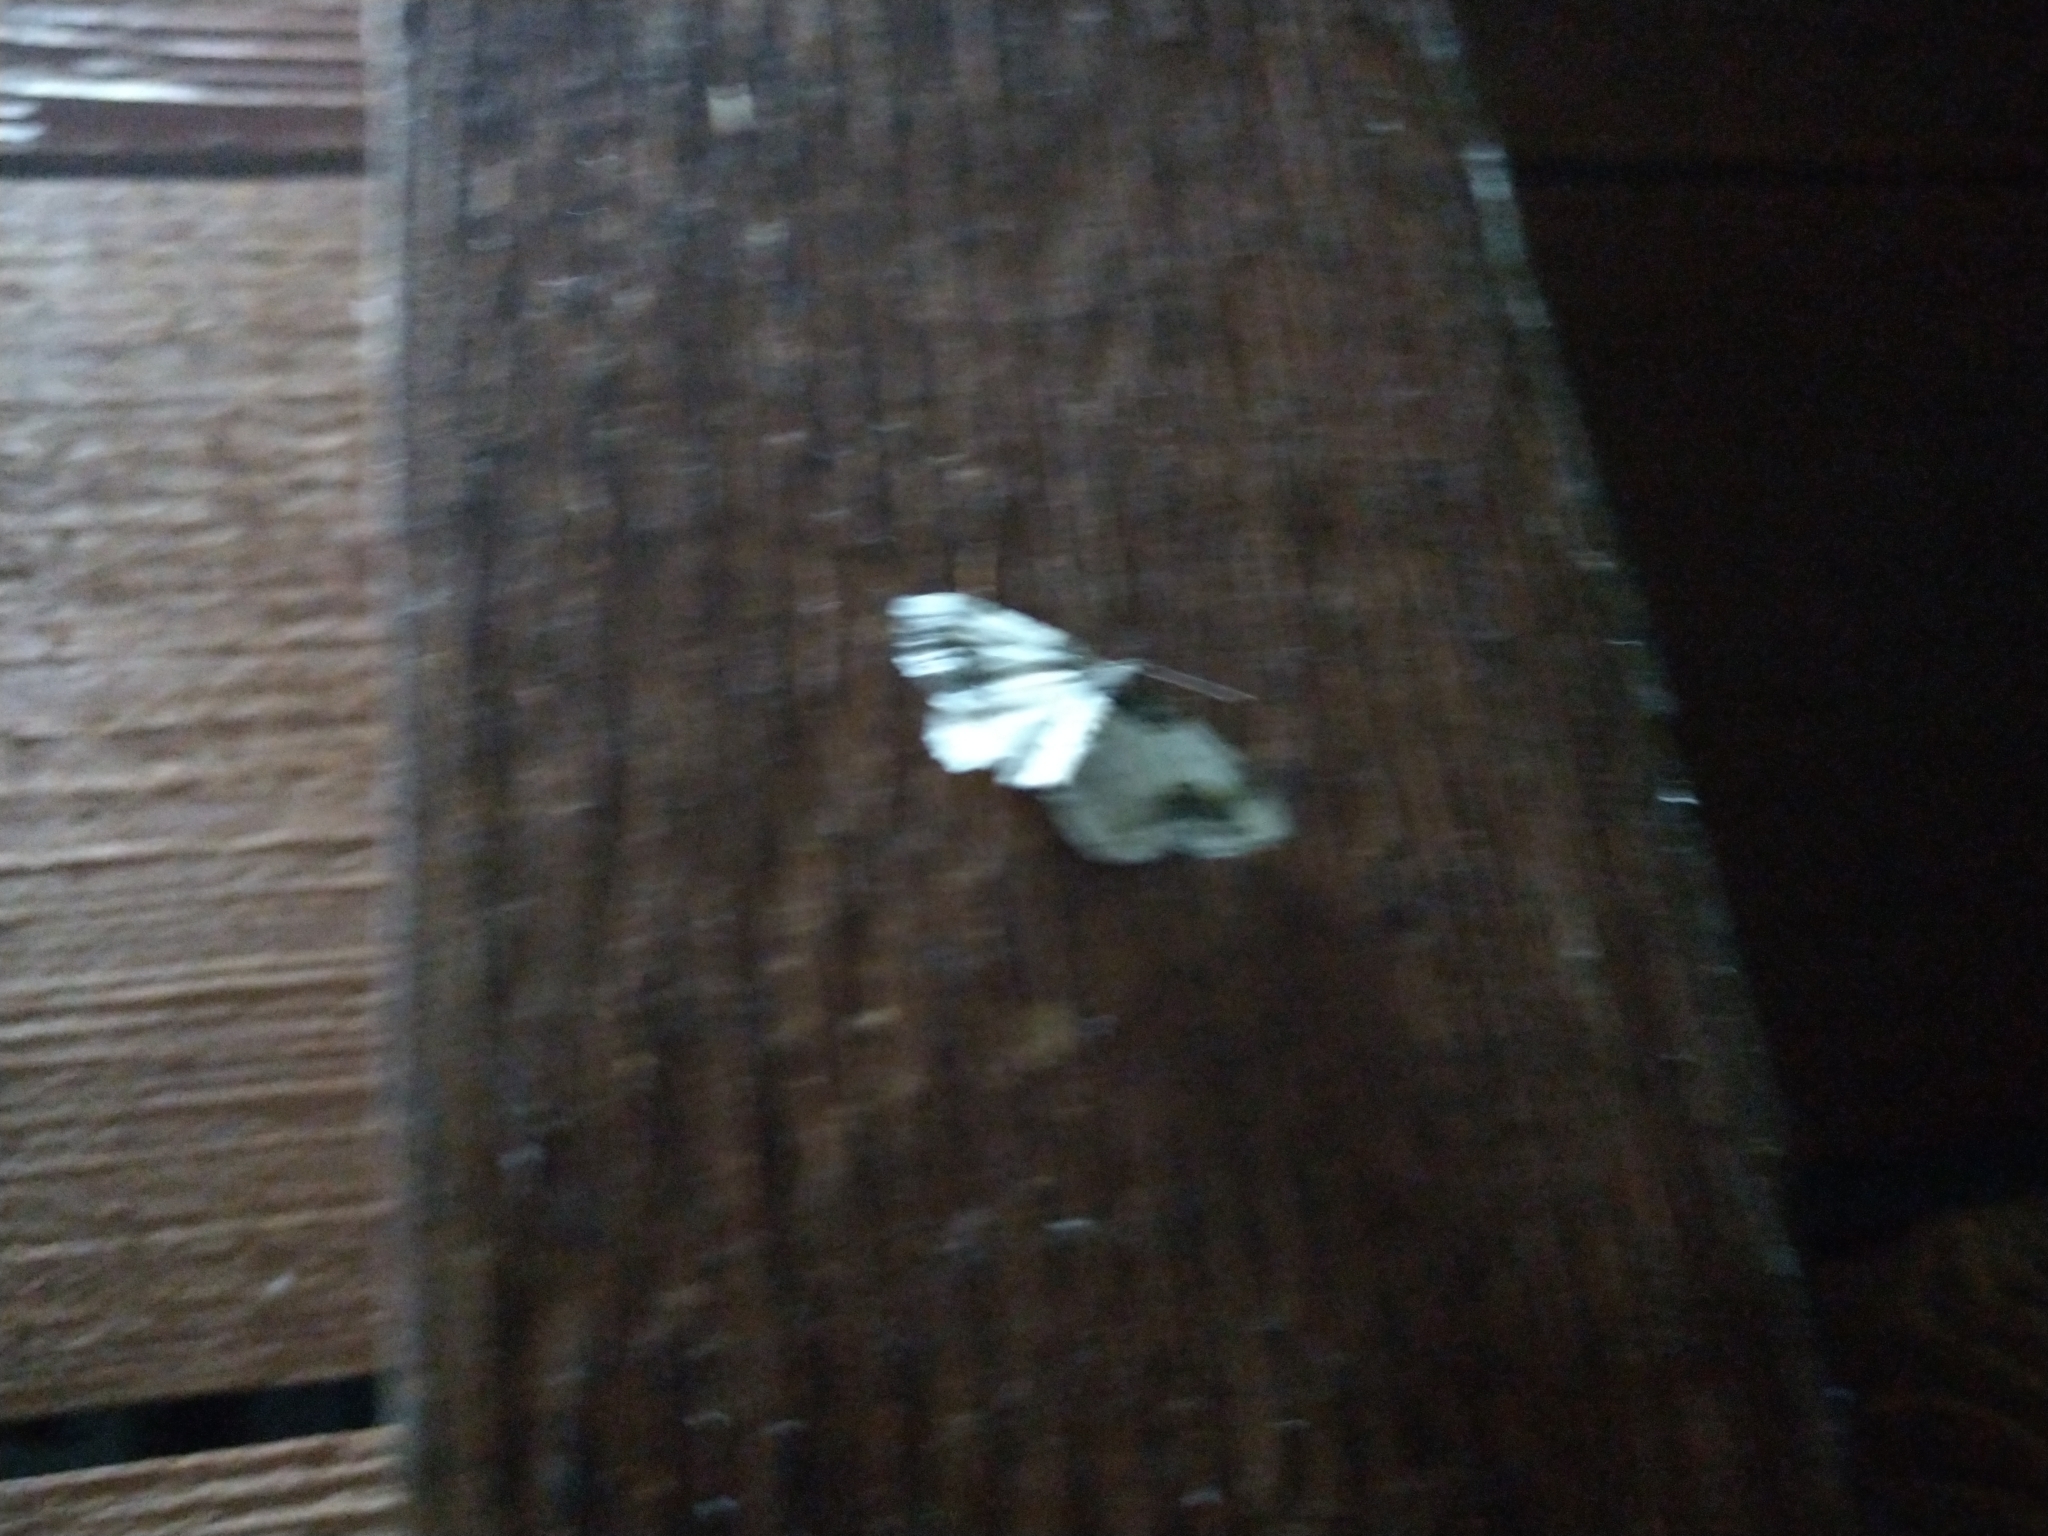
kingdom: Animalia
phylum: Arthropoda
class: Insecta
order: Lepidoptera
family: Geometridae
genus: Ligdia
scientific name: Ligdia adustata
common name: Scorched carpet
